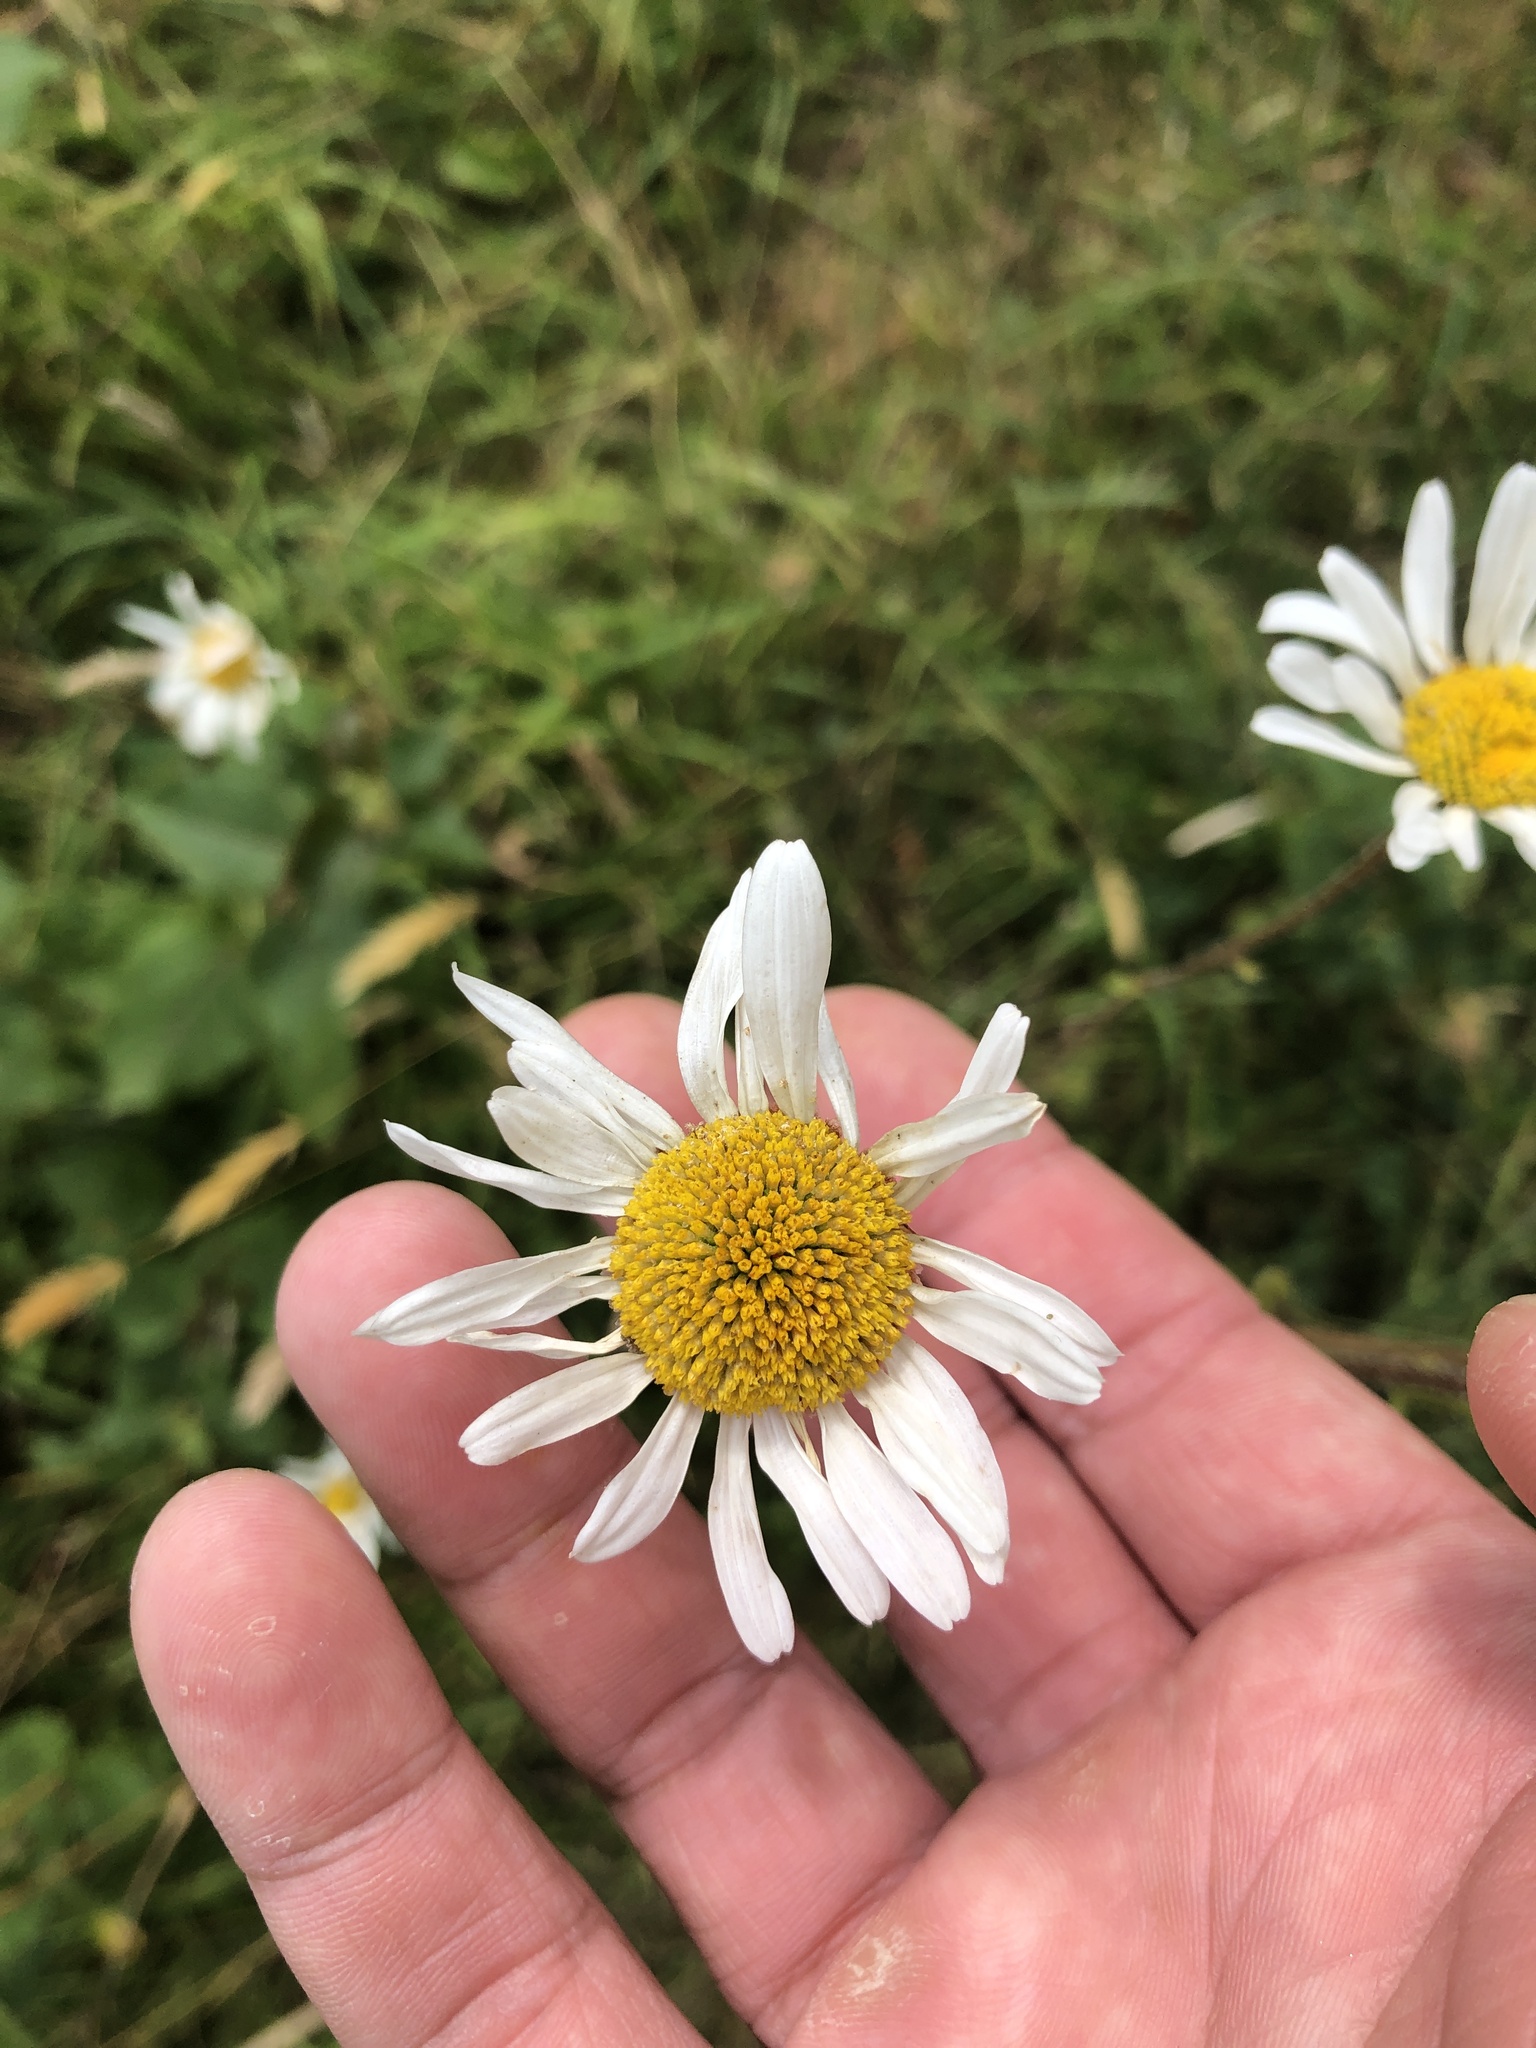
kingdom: Plantae
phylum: Tracheophyta
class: Magnoliopsida
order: Asterales
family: Asteraceae
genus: Leucanthemum
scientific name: Leucanthemum vulgare
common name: Oxeye daisy
